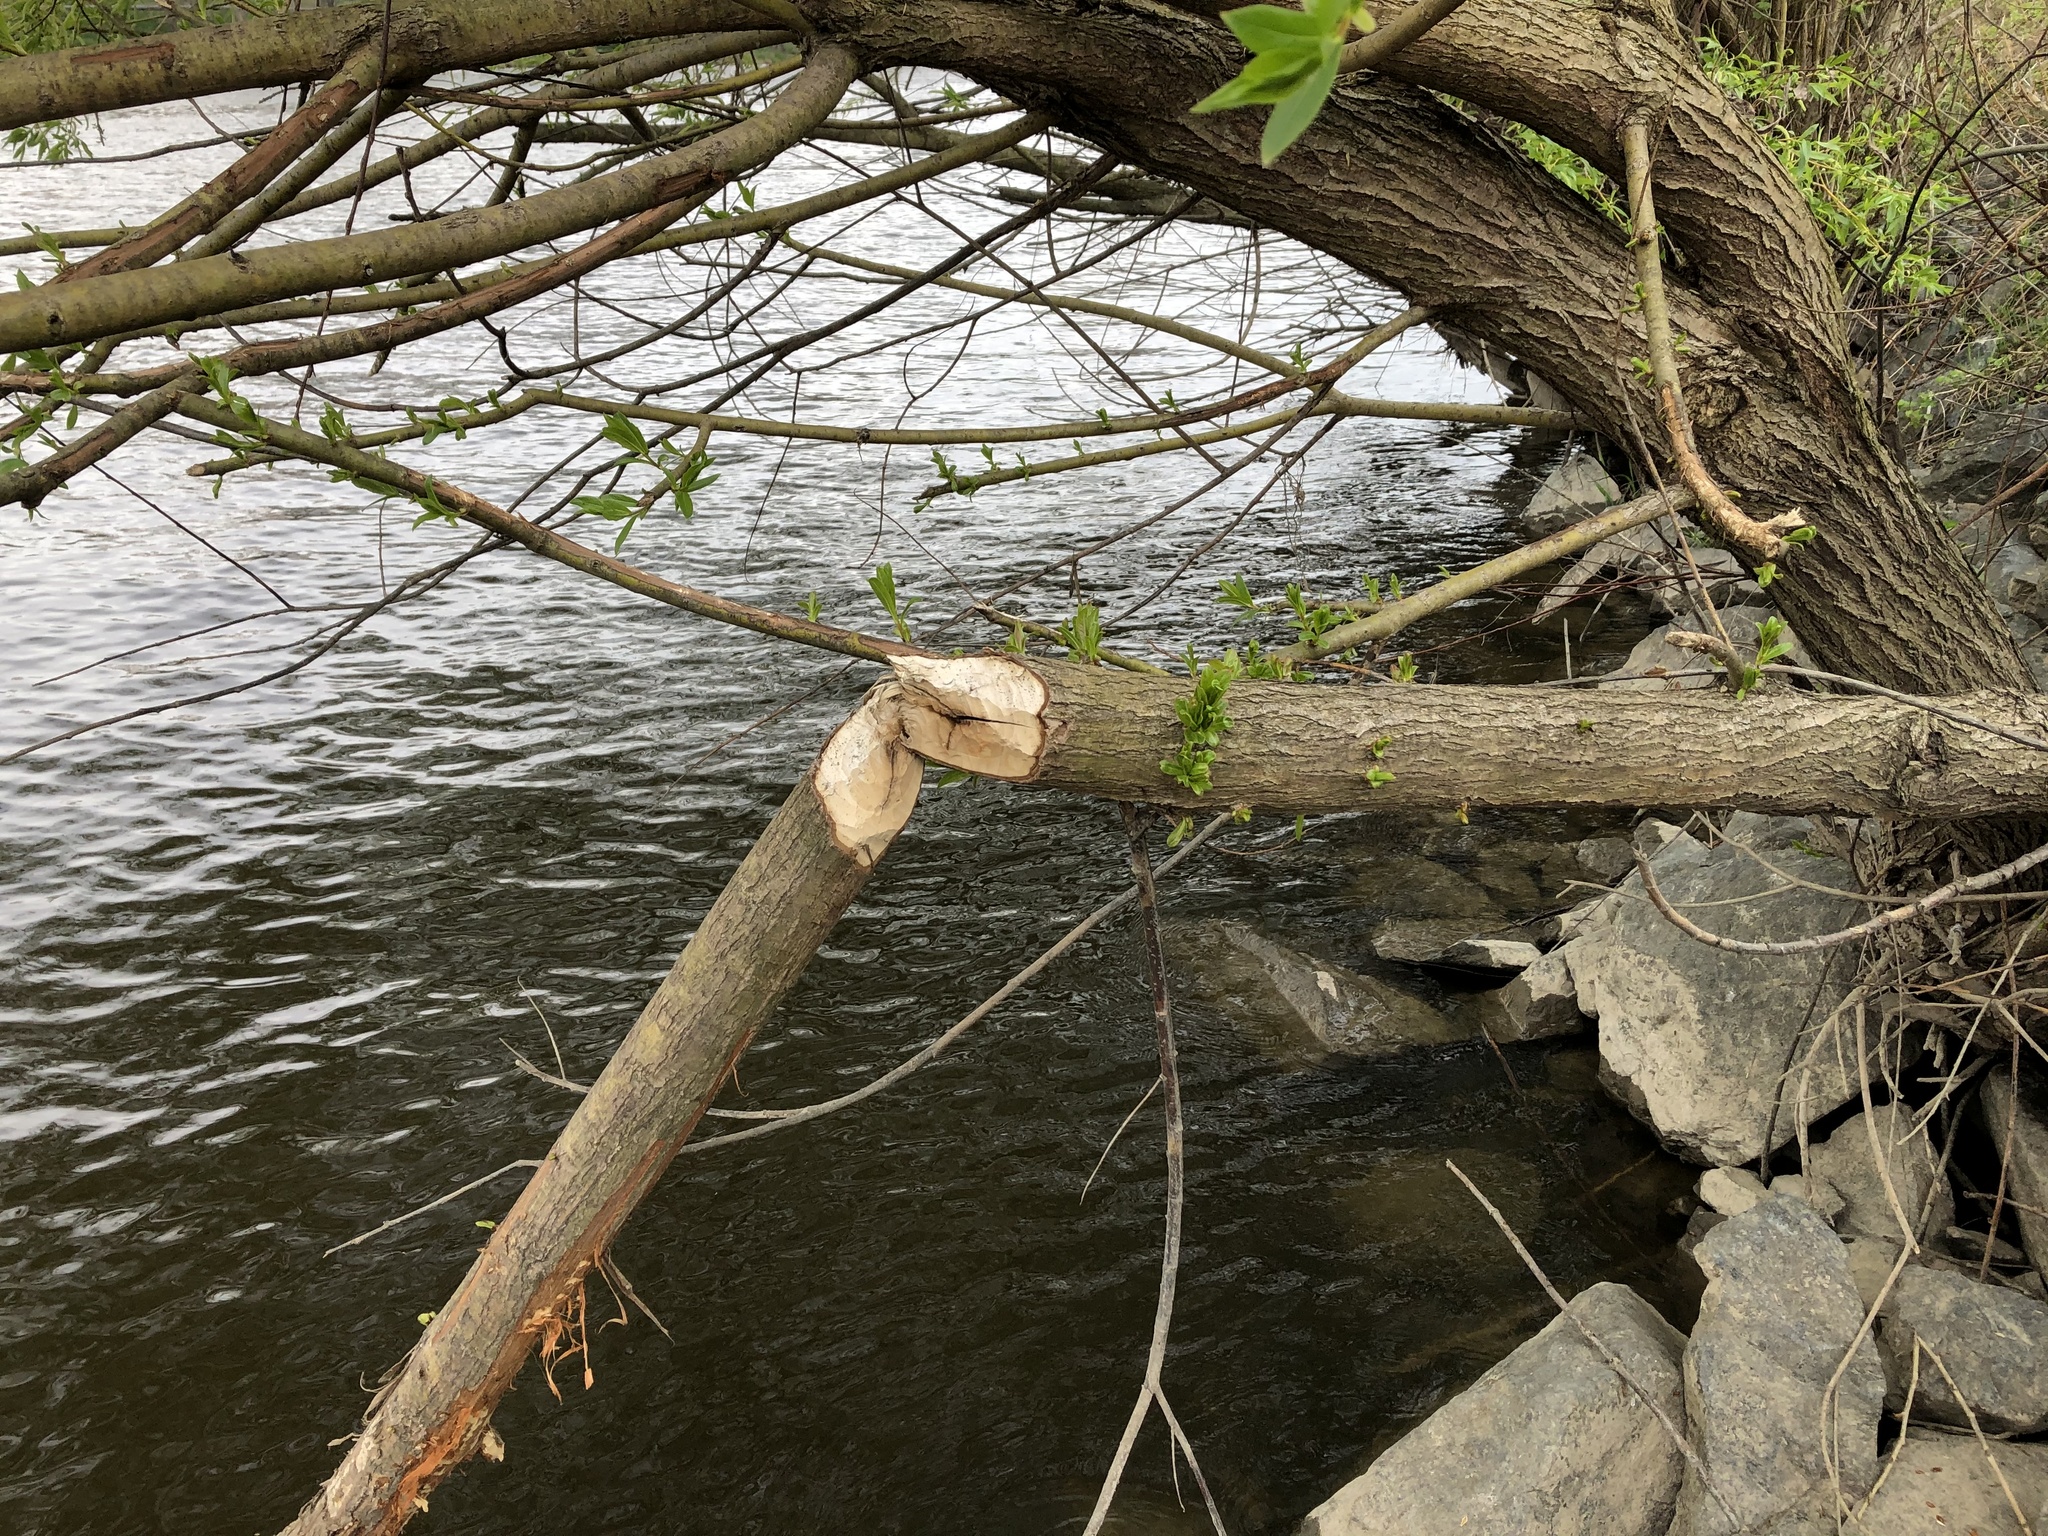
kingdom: Animalia
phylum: Chordata
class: Mammalia
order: Rodentia
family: Castoridae
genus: Castor
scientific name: Castor fiber
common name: Eurasian beaver
